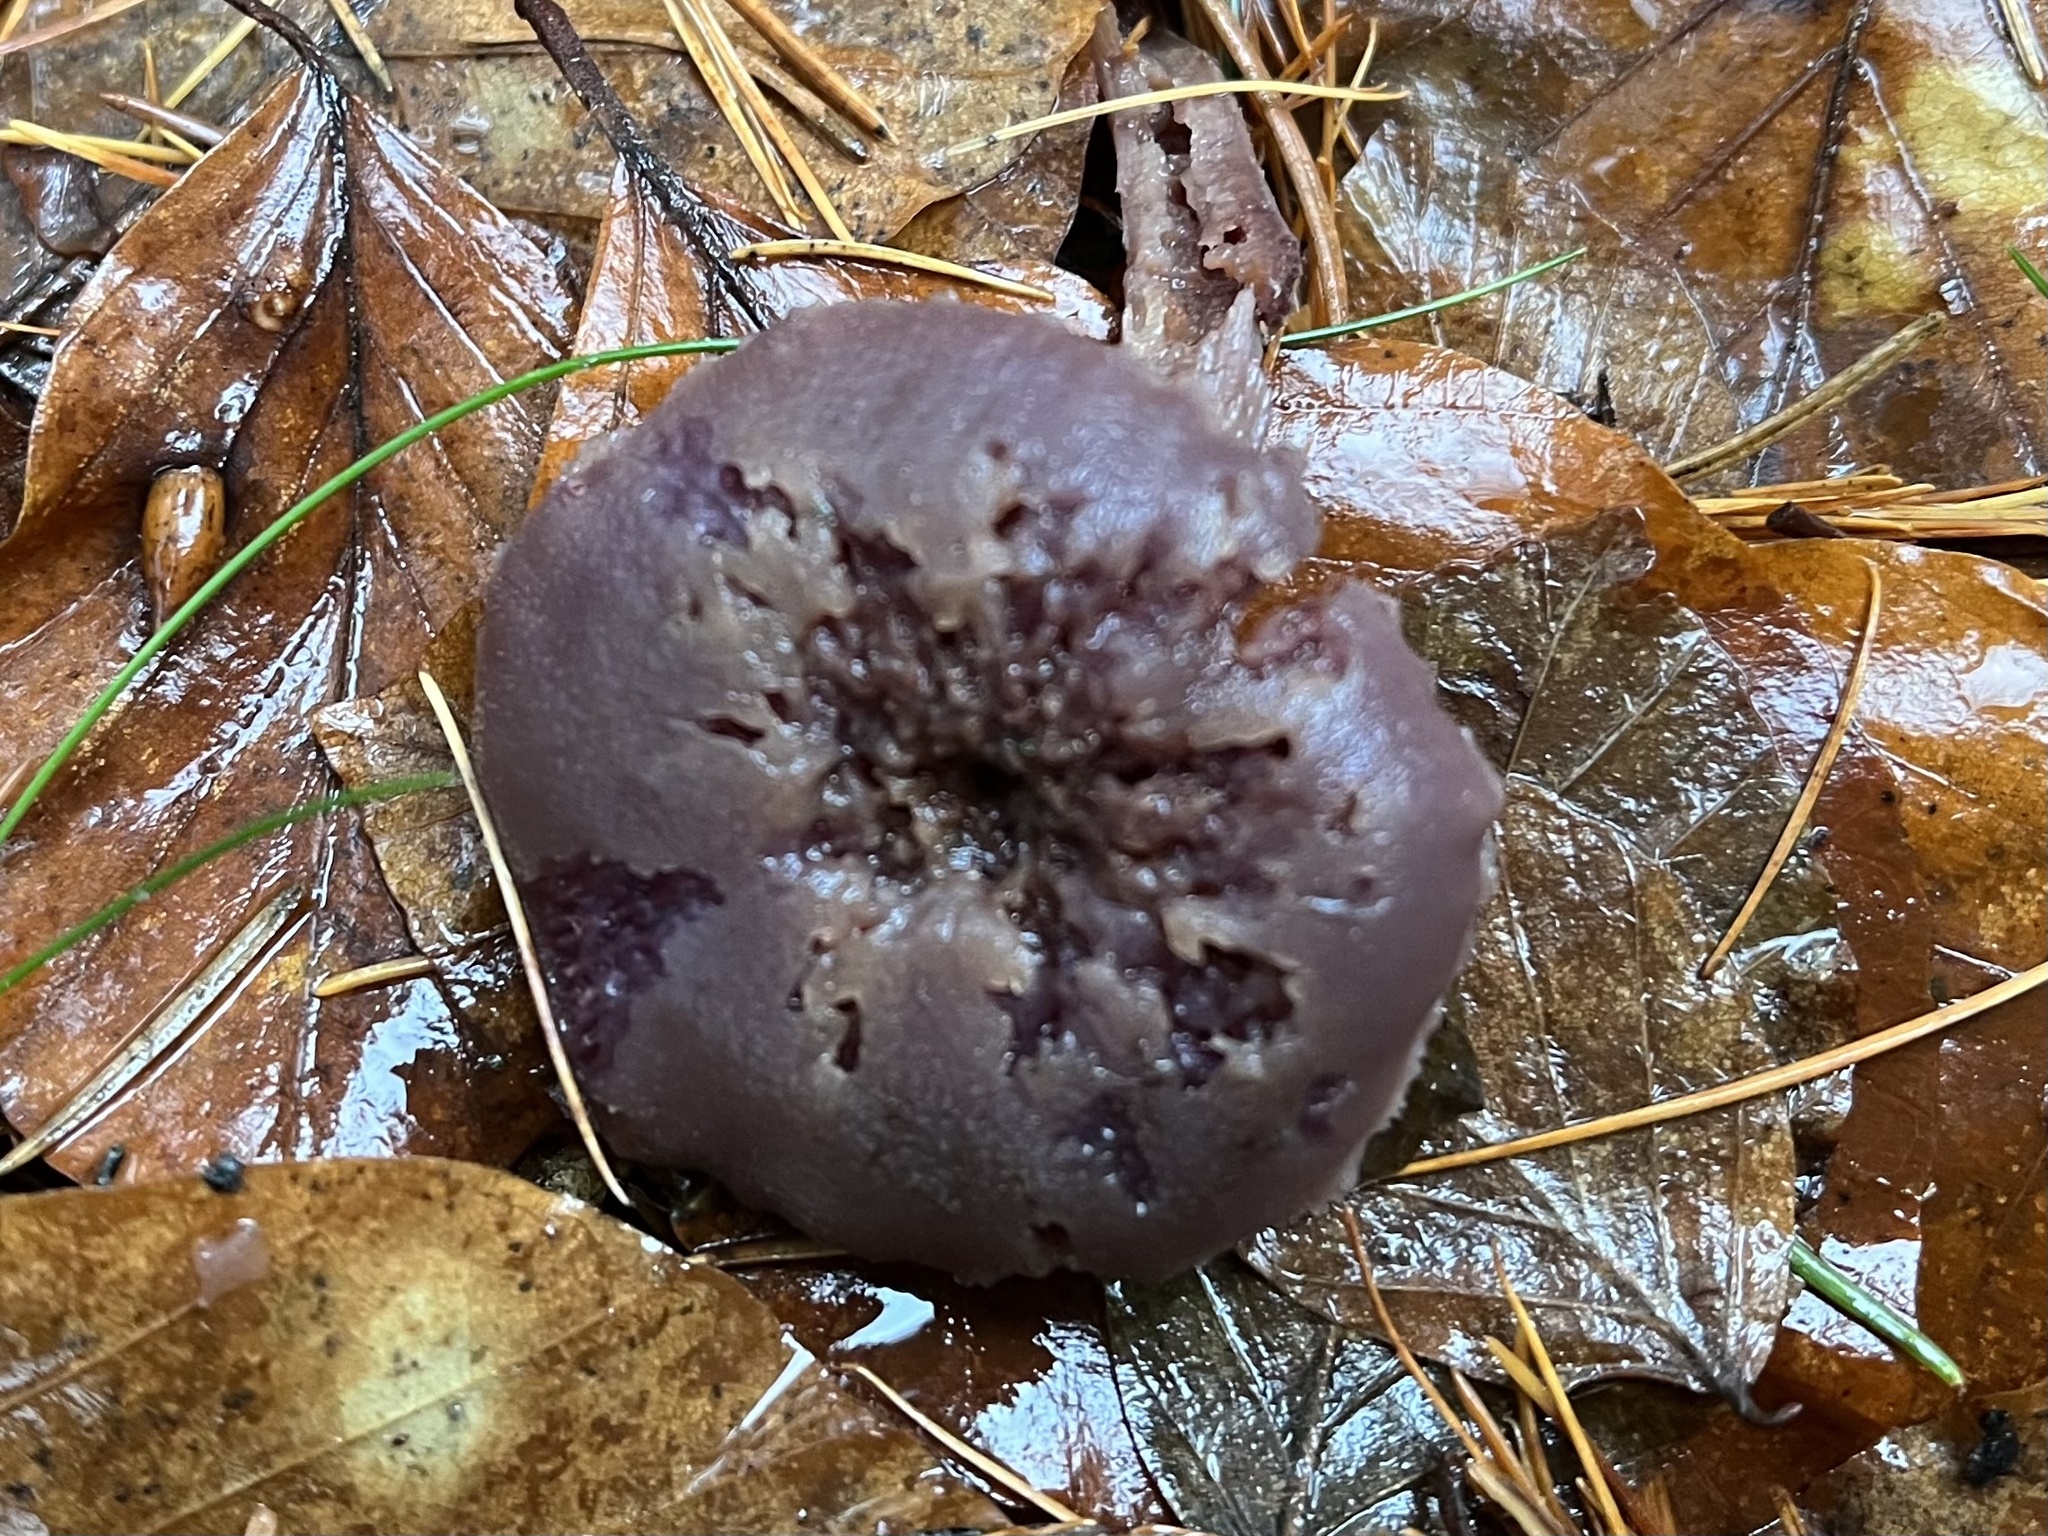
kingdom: Fungi
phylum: Basidiomycota
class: Agaricomycetes
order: Agaricales
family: Hydnangiaceae
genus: Laccaria
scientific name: Laccaria amethystina
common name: Amethyst deceiver
